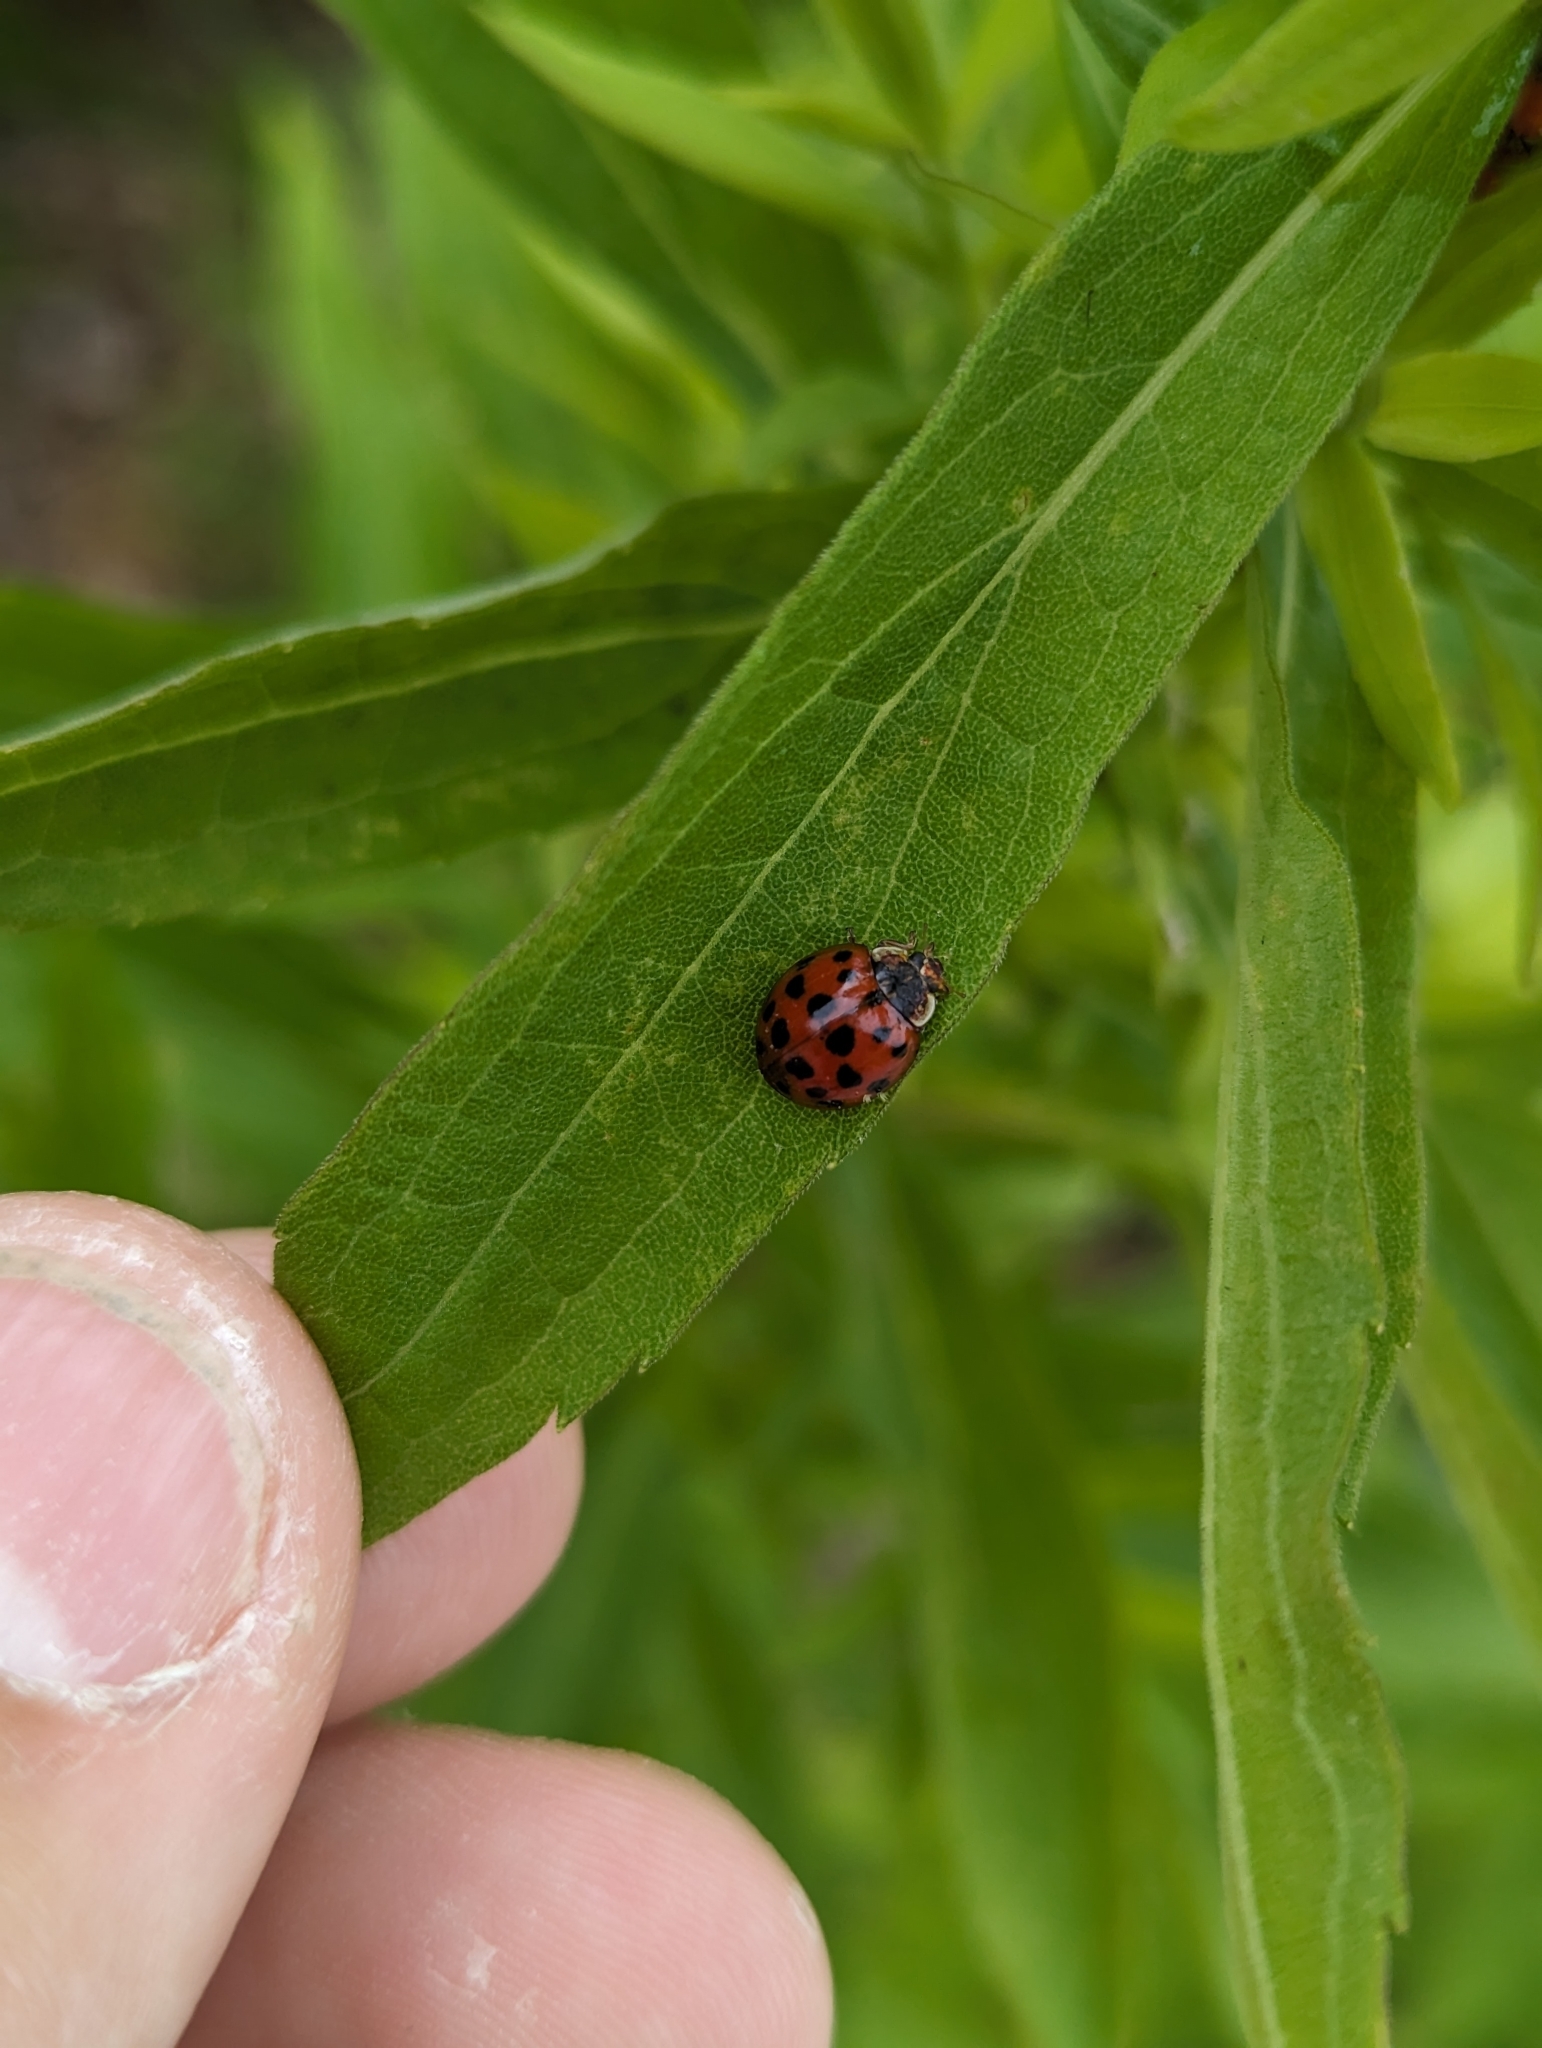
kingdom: Animalia
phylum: Arthropoda
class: Insecta
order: Coleoptera
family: Coccinellidae
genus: Harmonia
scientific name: Harmonia axyridis
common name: Harlequin ladybird
